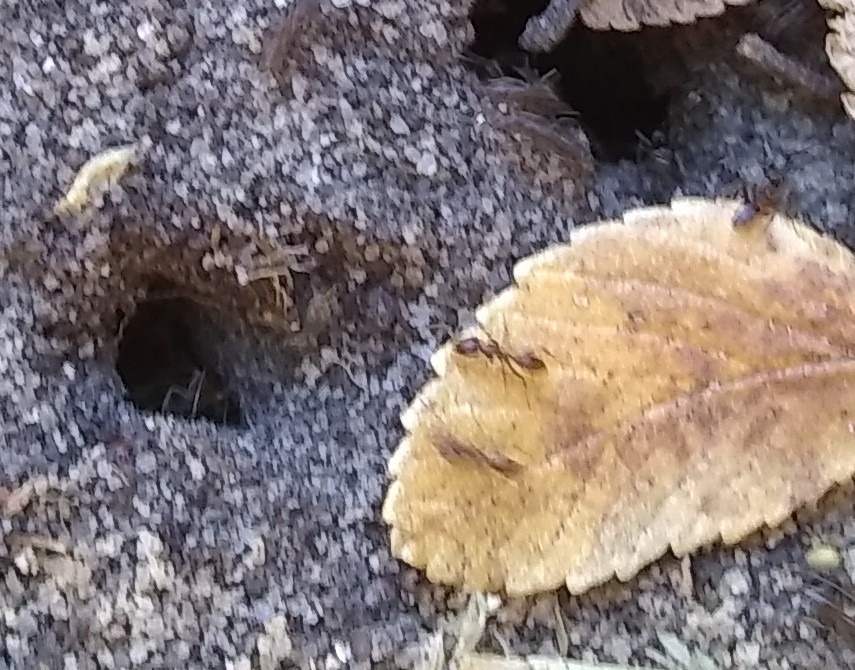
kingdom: Animalia
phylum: Arthropoda
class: Insecta
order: Hymenoptera
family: Formicidae
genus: Linepithema
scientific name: Linepithema humile
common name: Argentine ant
